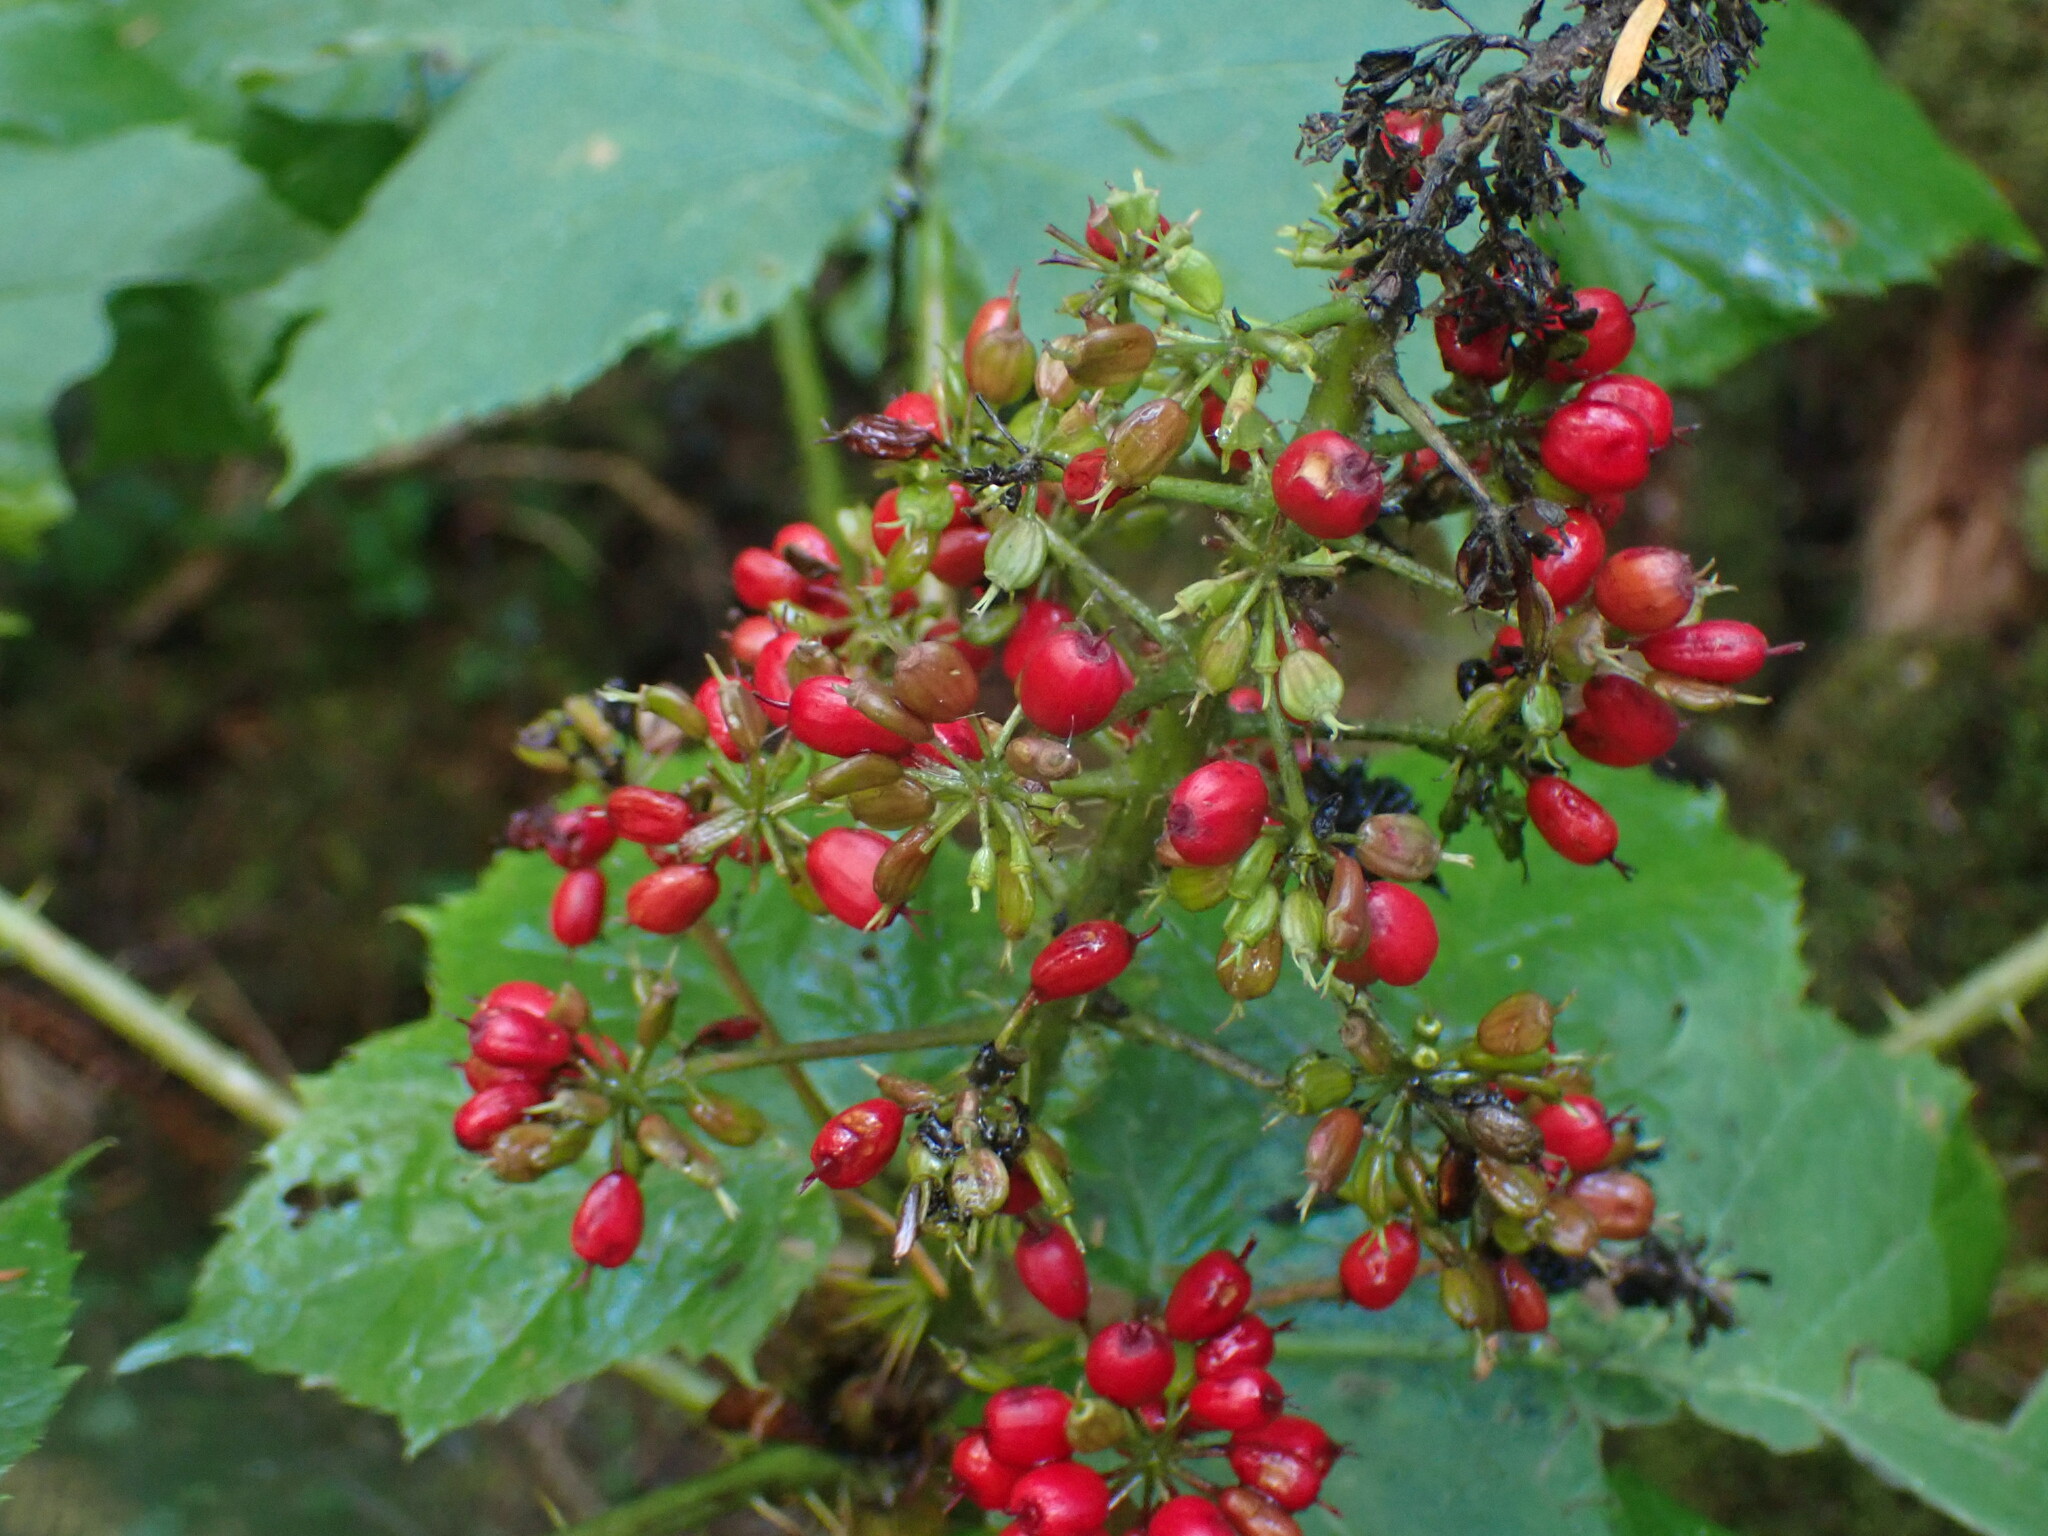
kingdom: Plantae
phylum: Tracheophyta
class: Magnoliopsida
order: Apiales
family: Araliaceae
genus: Oplopanax
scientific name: Oplopanax horridus
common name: Devil's walking-stick
